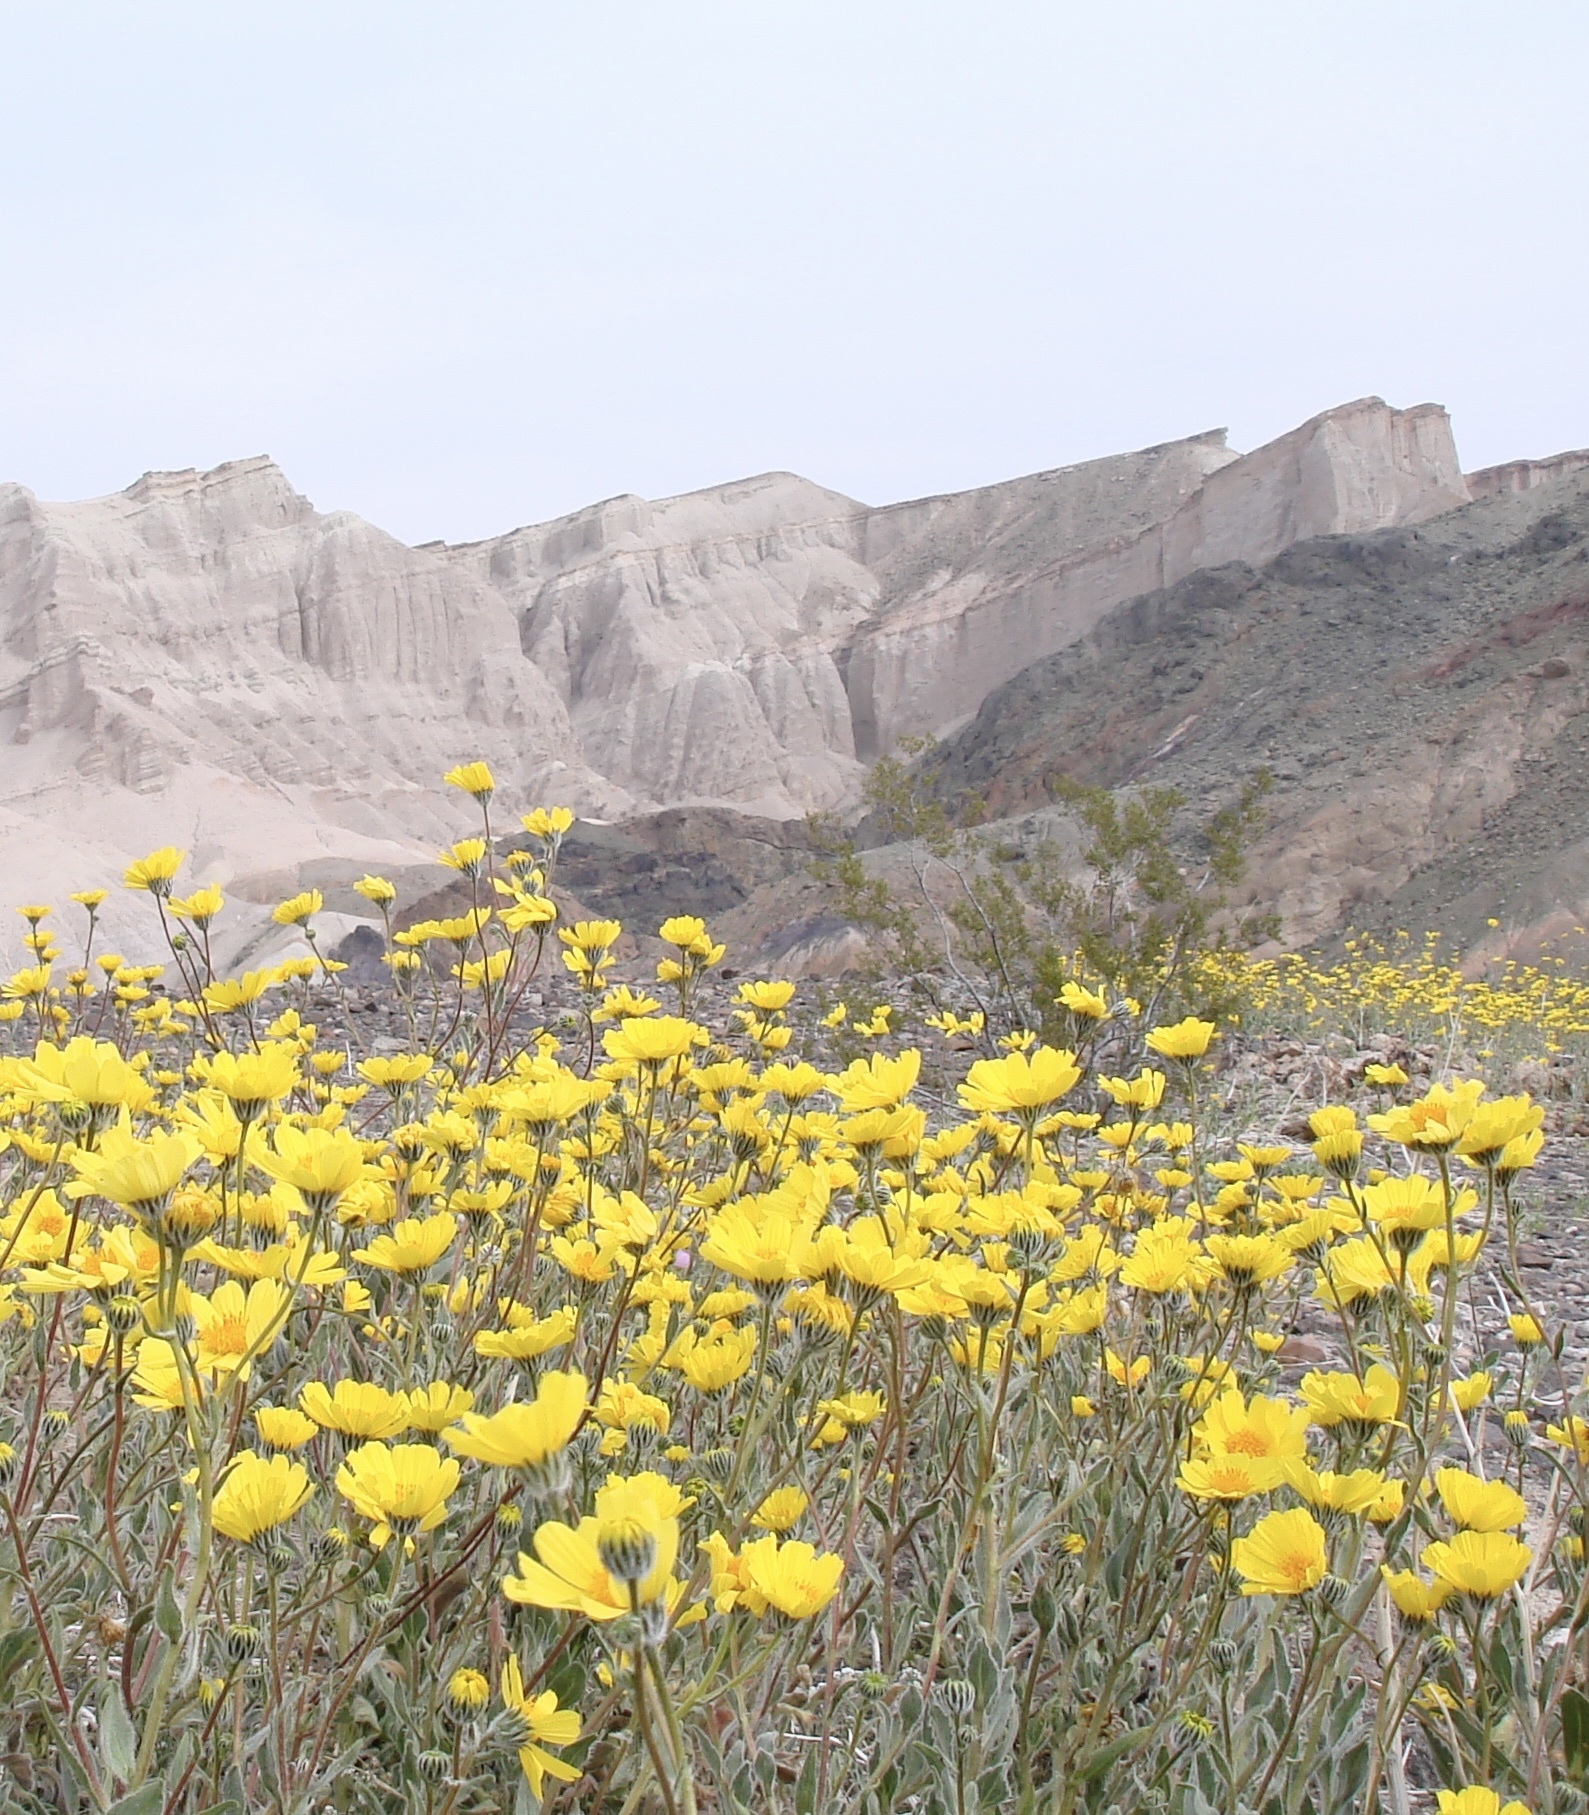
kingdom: Plantae
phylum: Tracheophyta
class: Magnoliopsida
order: Asterales
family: Asteraceae
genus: Geraea
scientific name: Geraea canescens
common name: Desert-gold
